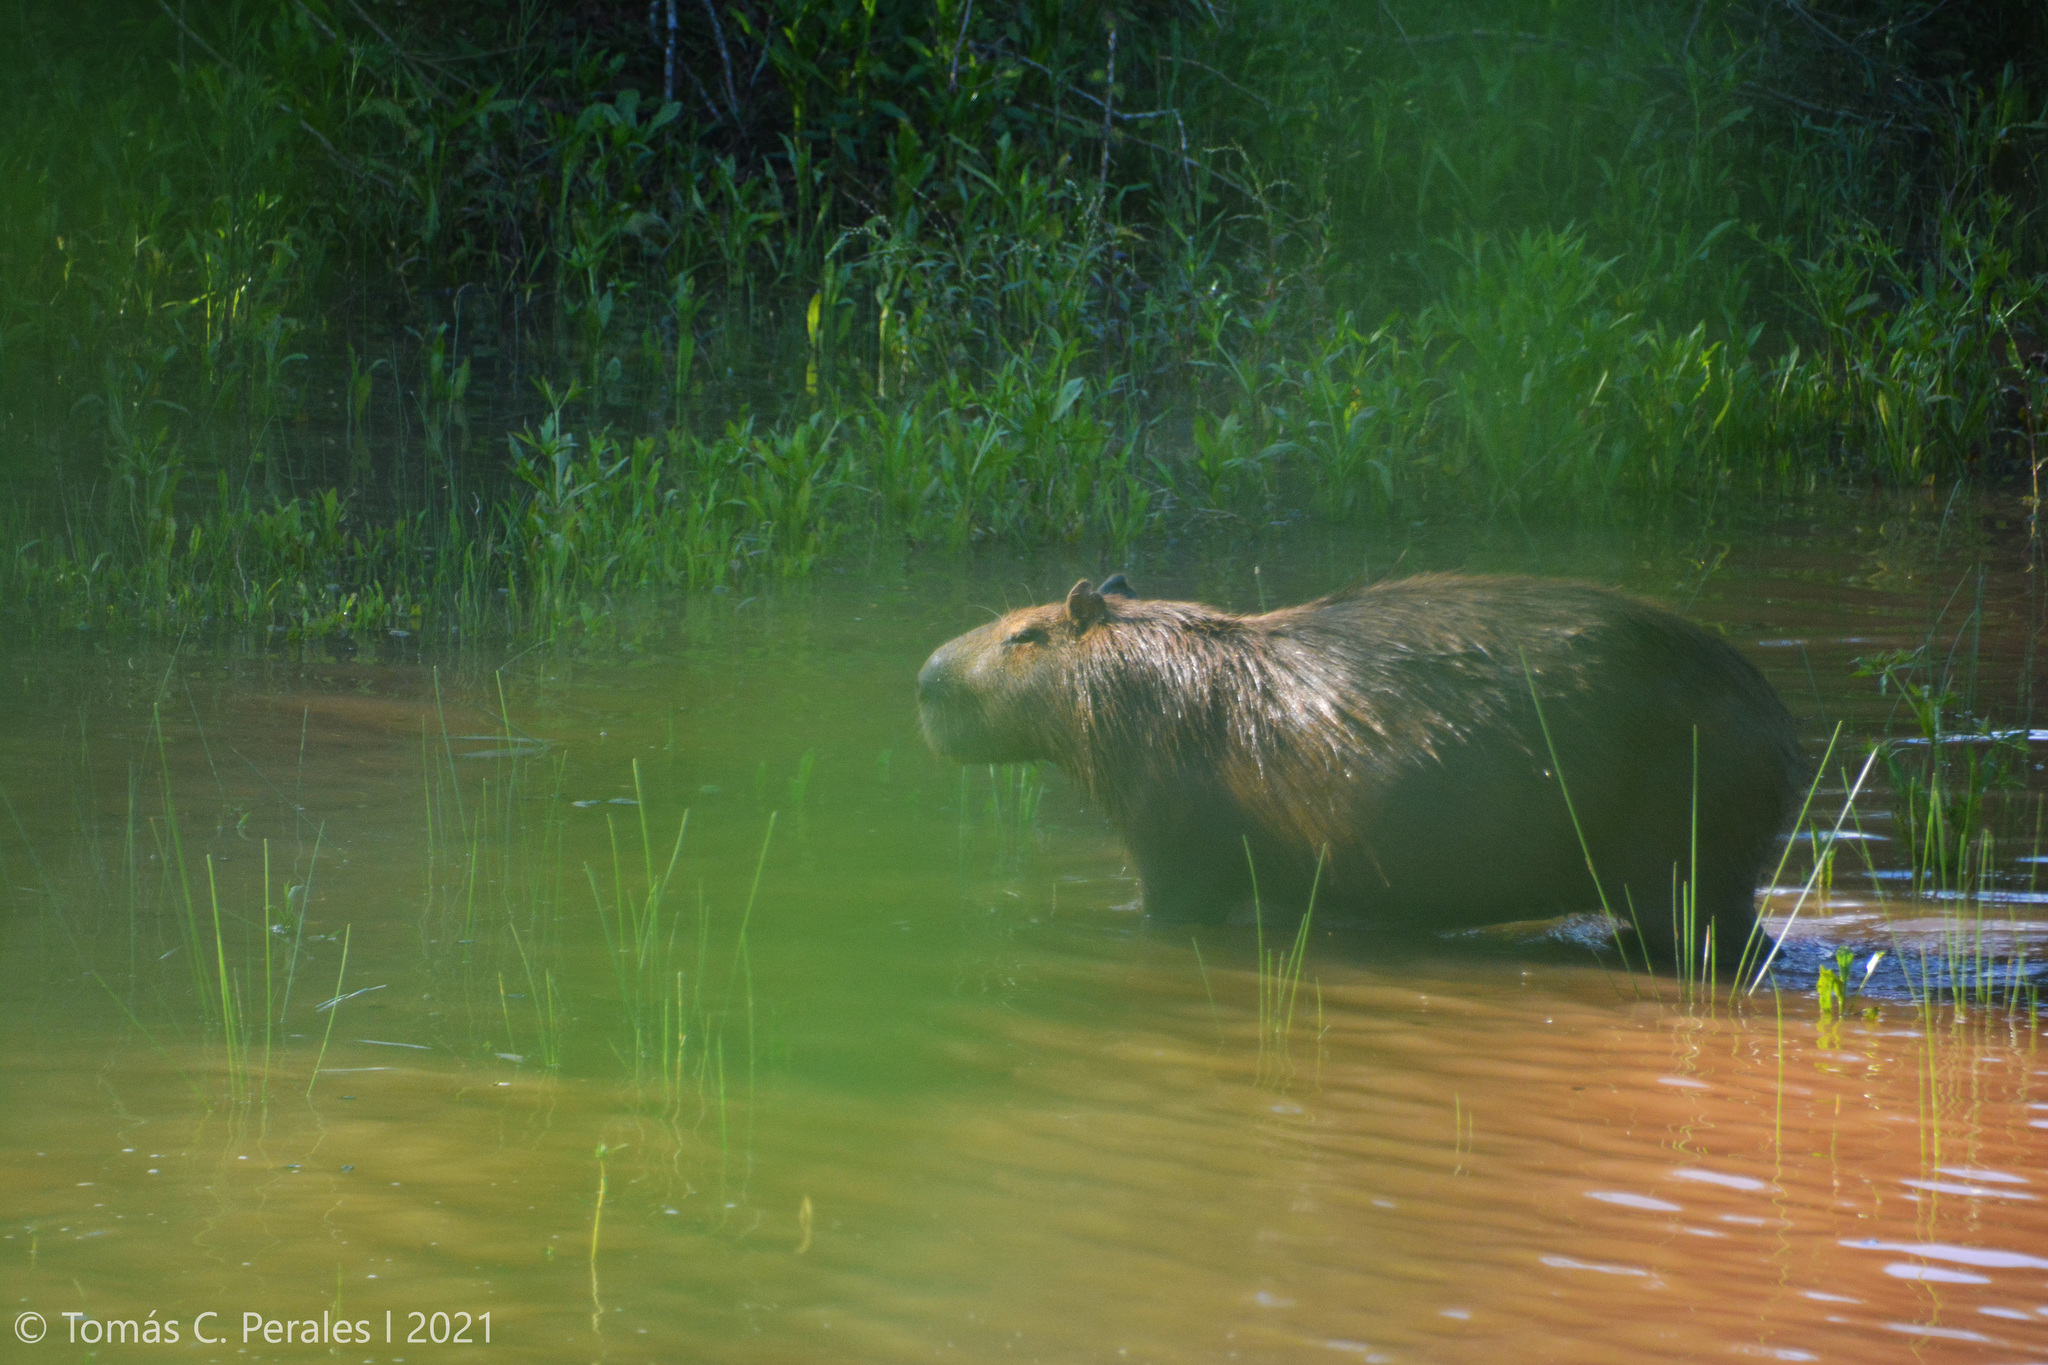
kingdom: Animalia
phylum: Chordata
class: Mammalia
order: Rodentia
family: Caviidae
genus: Hydrochoerus
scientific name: Hydrochoerus hydrochaeris
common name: Capybara
